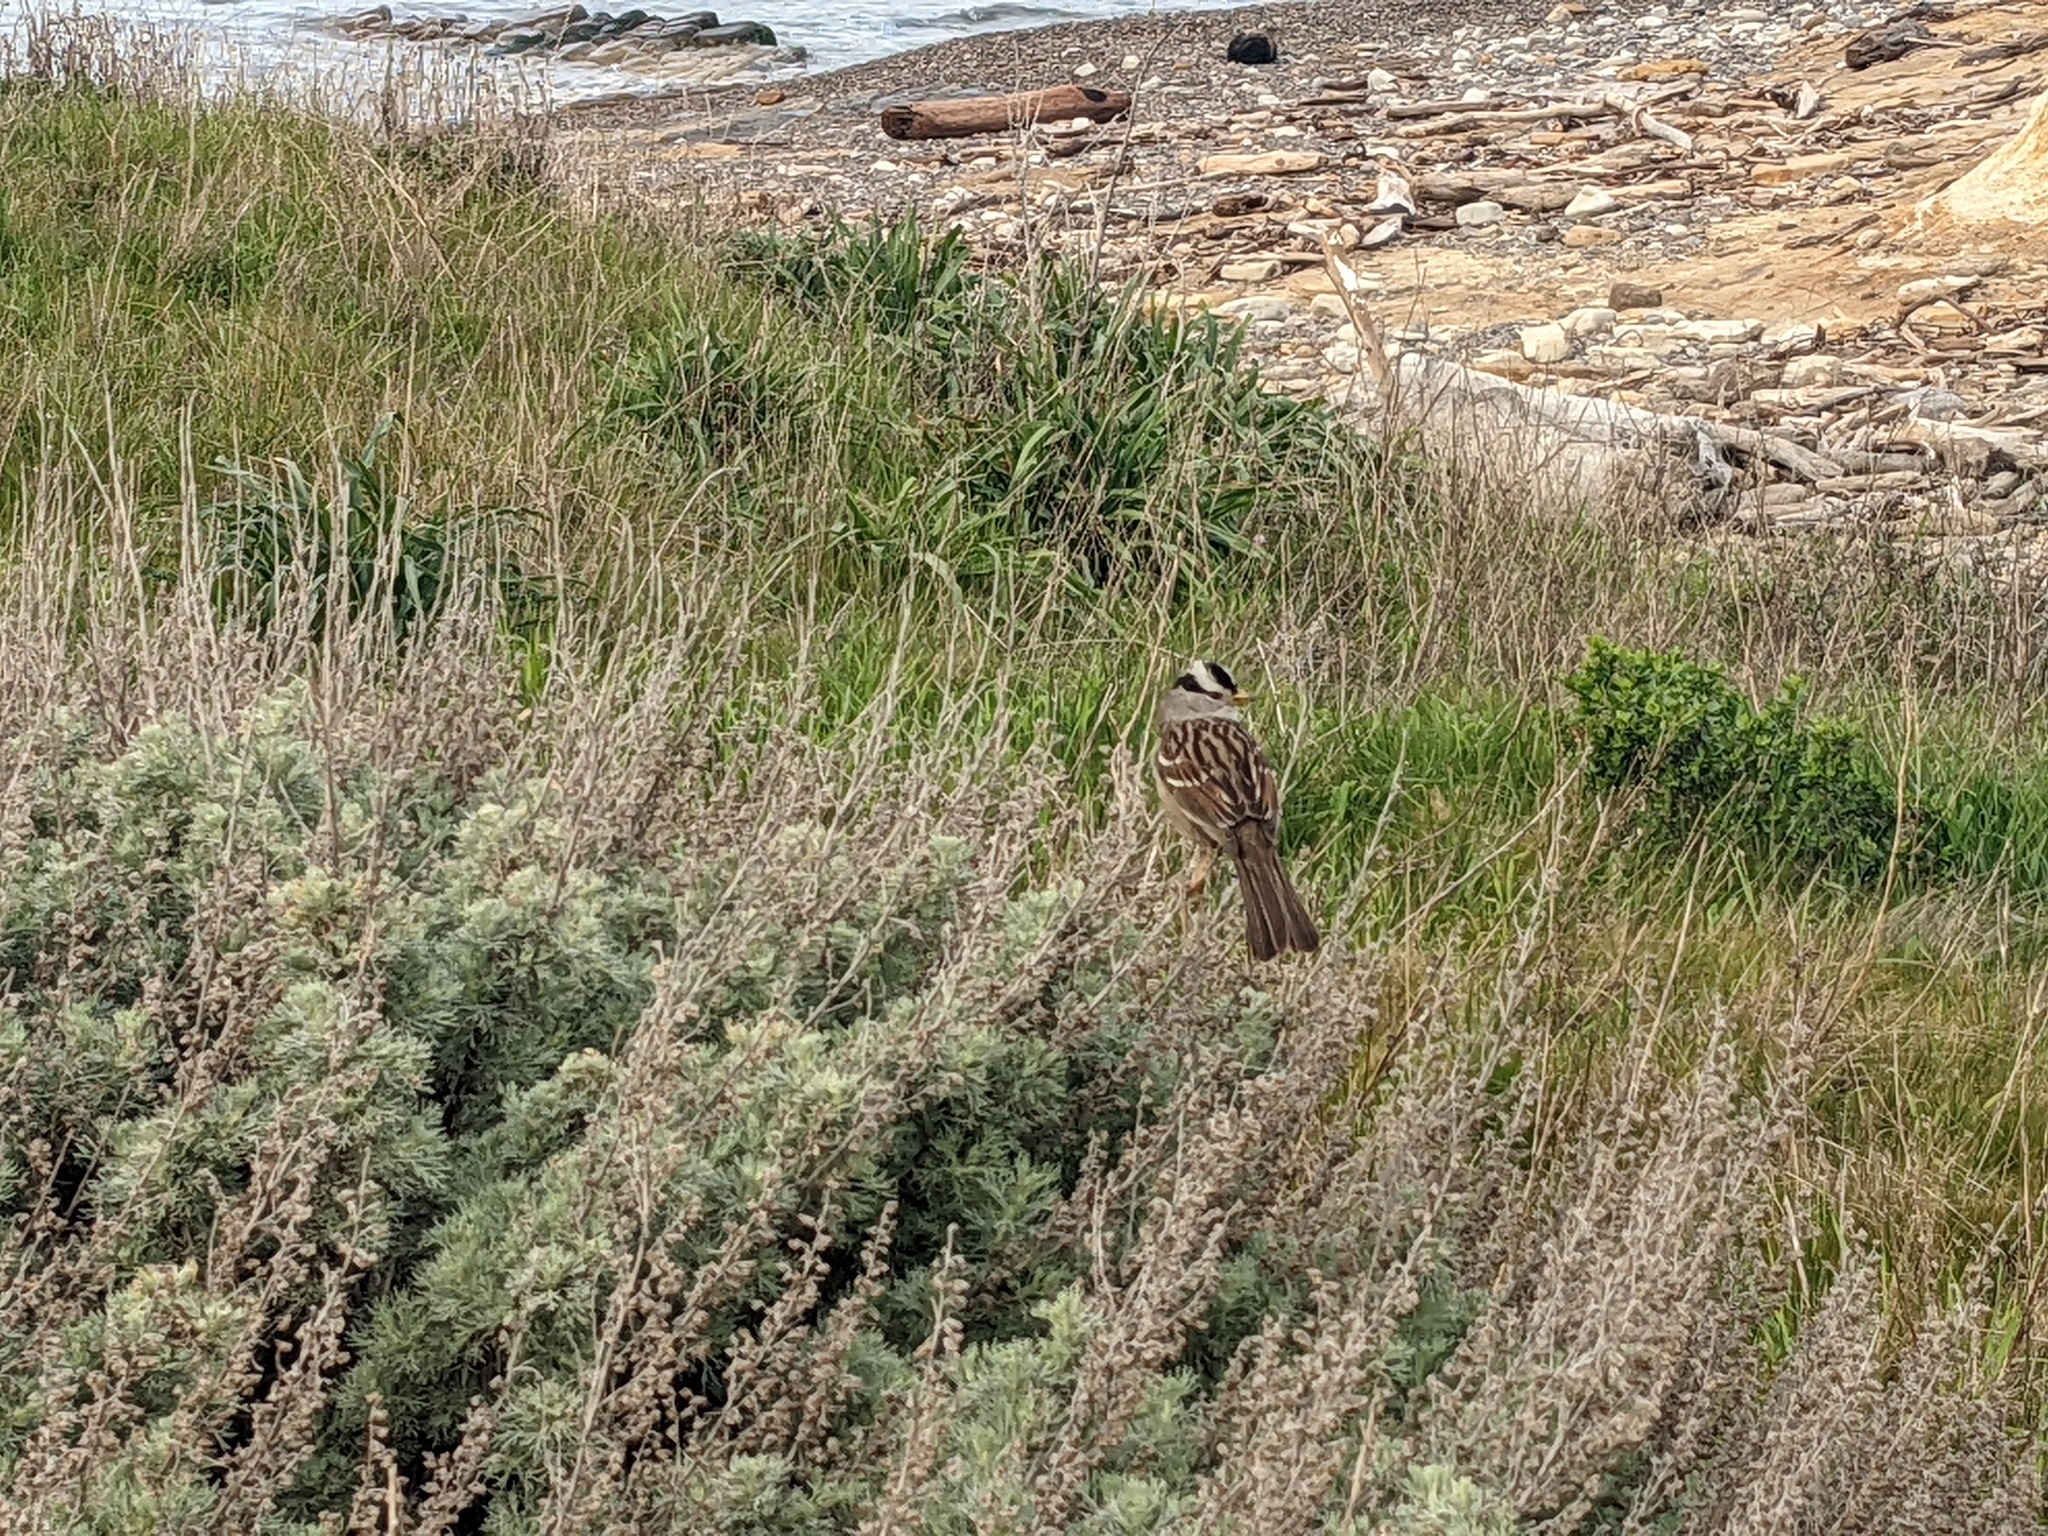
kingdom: Animalia
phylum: Chordata
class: Aves
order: Passeriformes
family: Passerellidae
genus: Zonotrichia
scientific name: Zonotrichia leucophrys
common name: White-crowned sparrow
